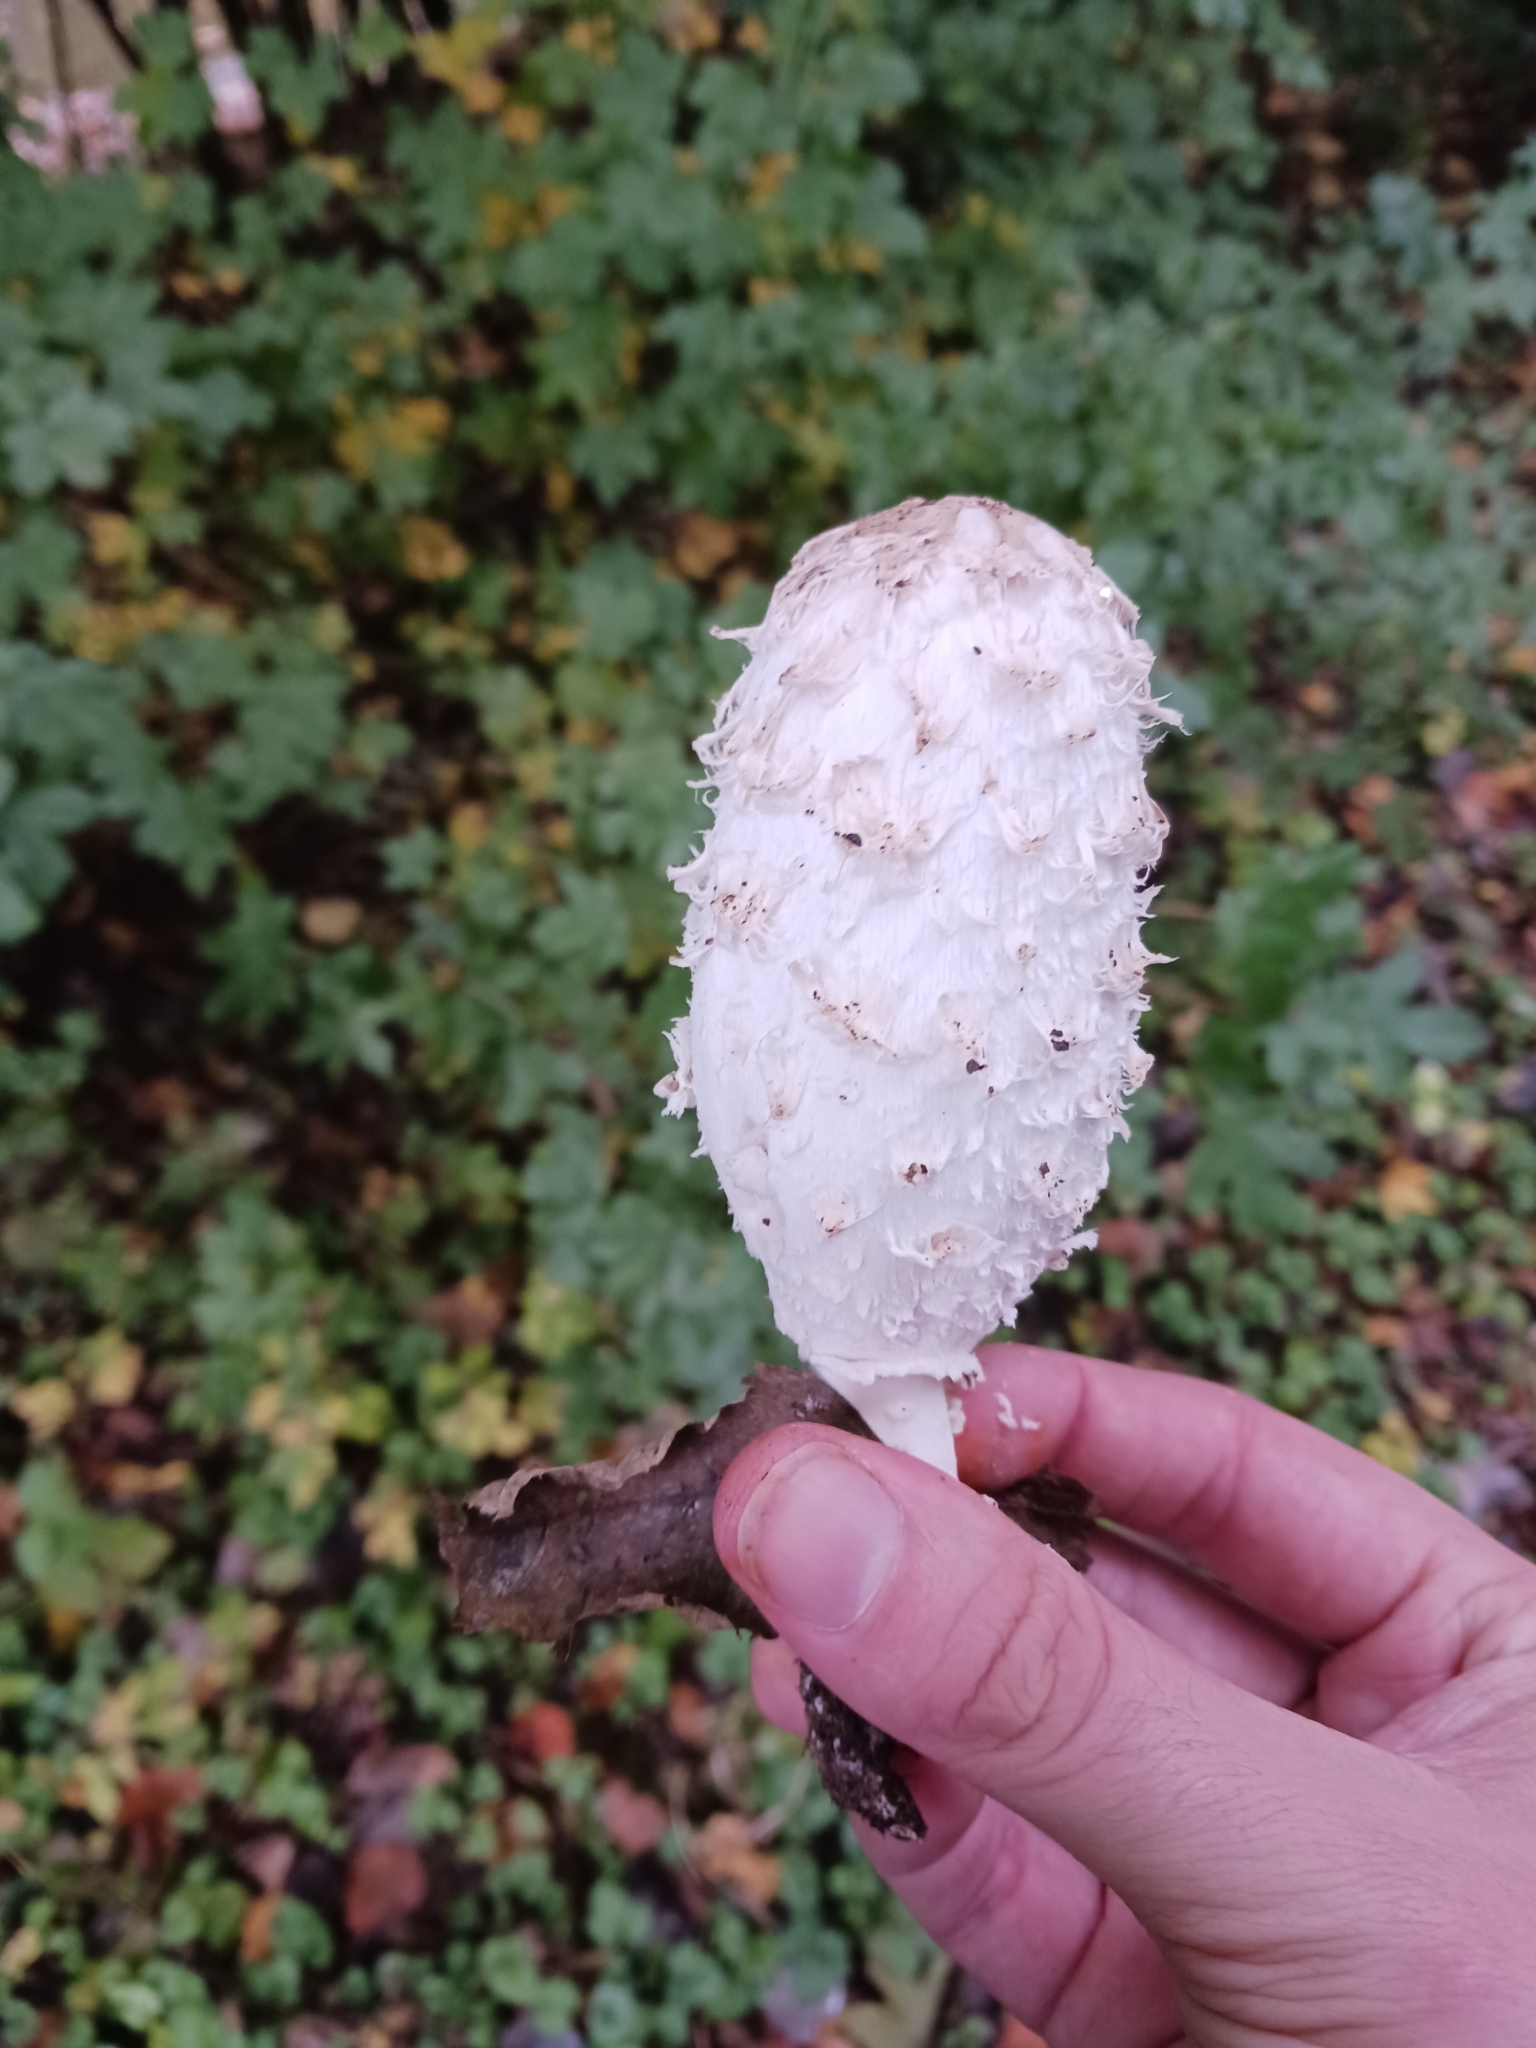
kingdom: Fungi
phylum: Basidiomycota
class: Agaricomycetes
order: Agaricales
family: Agaricaceae
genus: Coprinus
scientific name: Coprinus comatus
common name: Lawyer's wig
